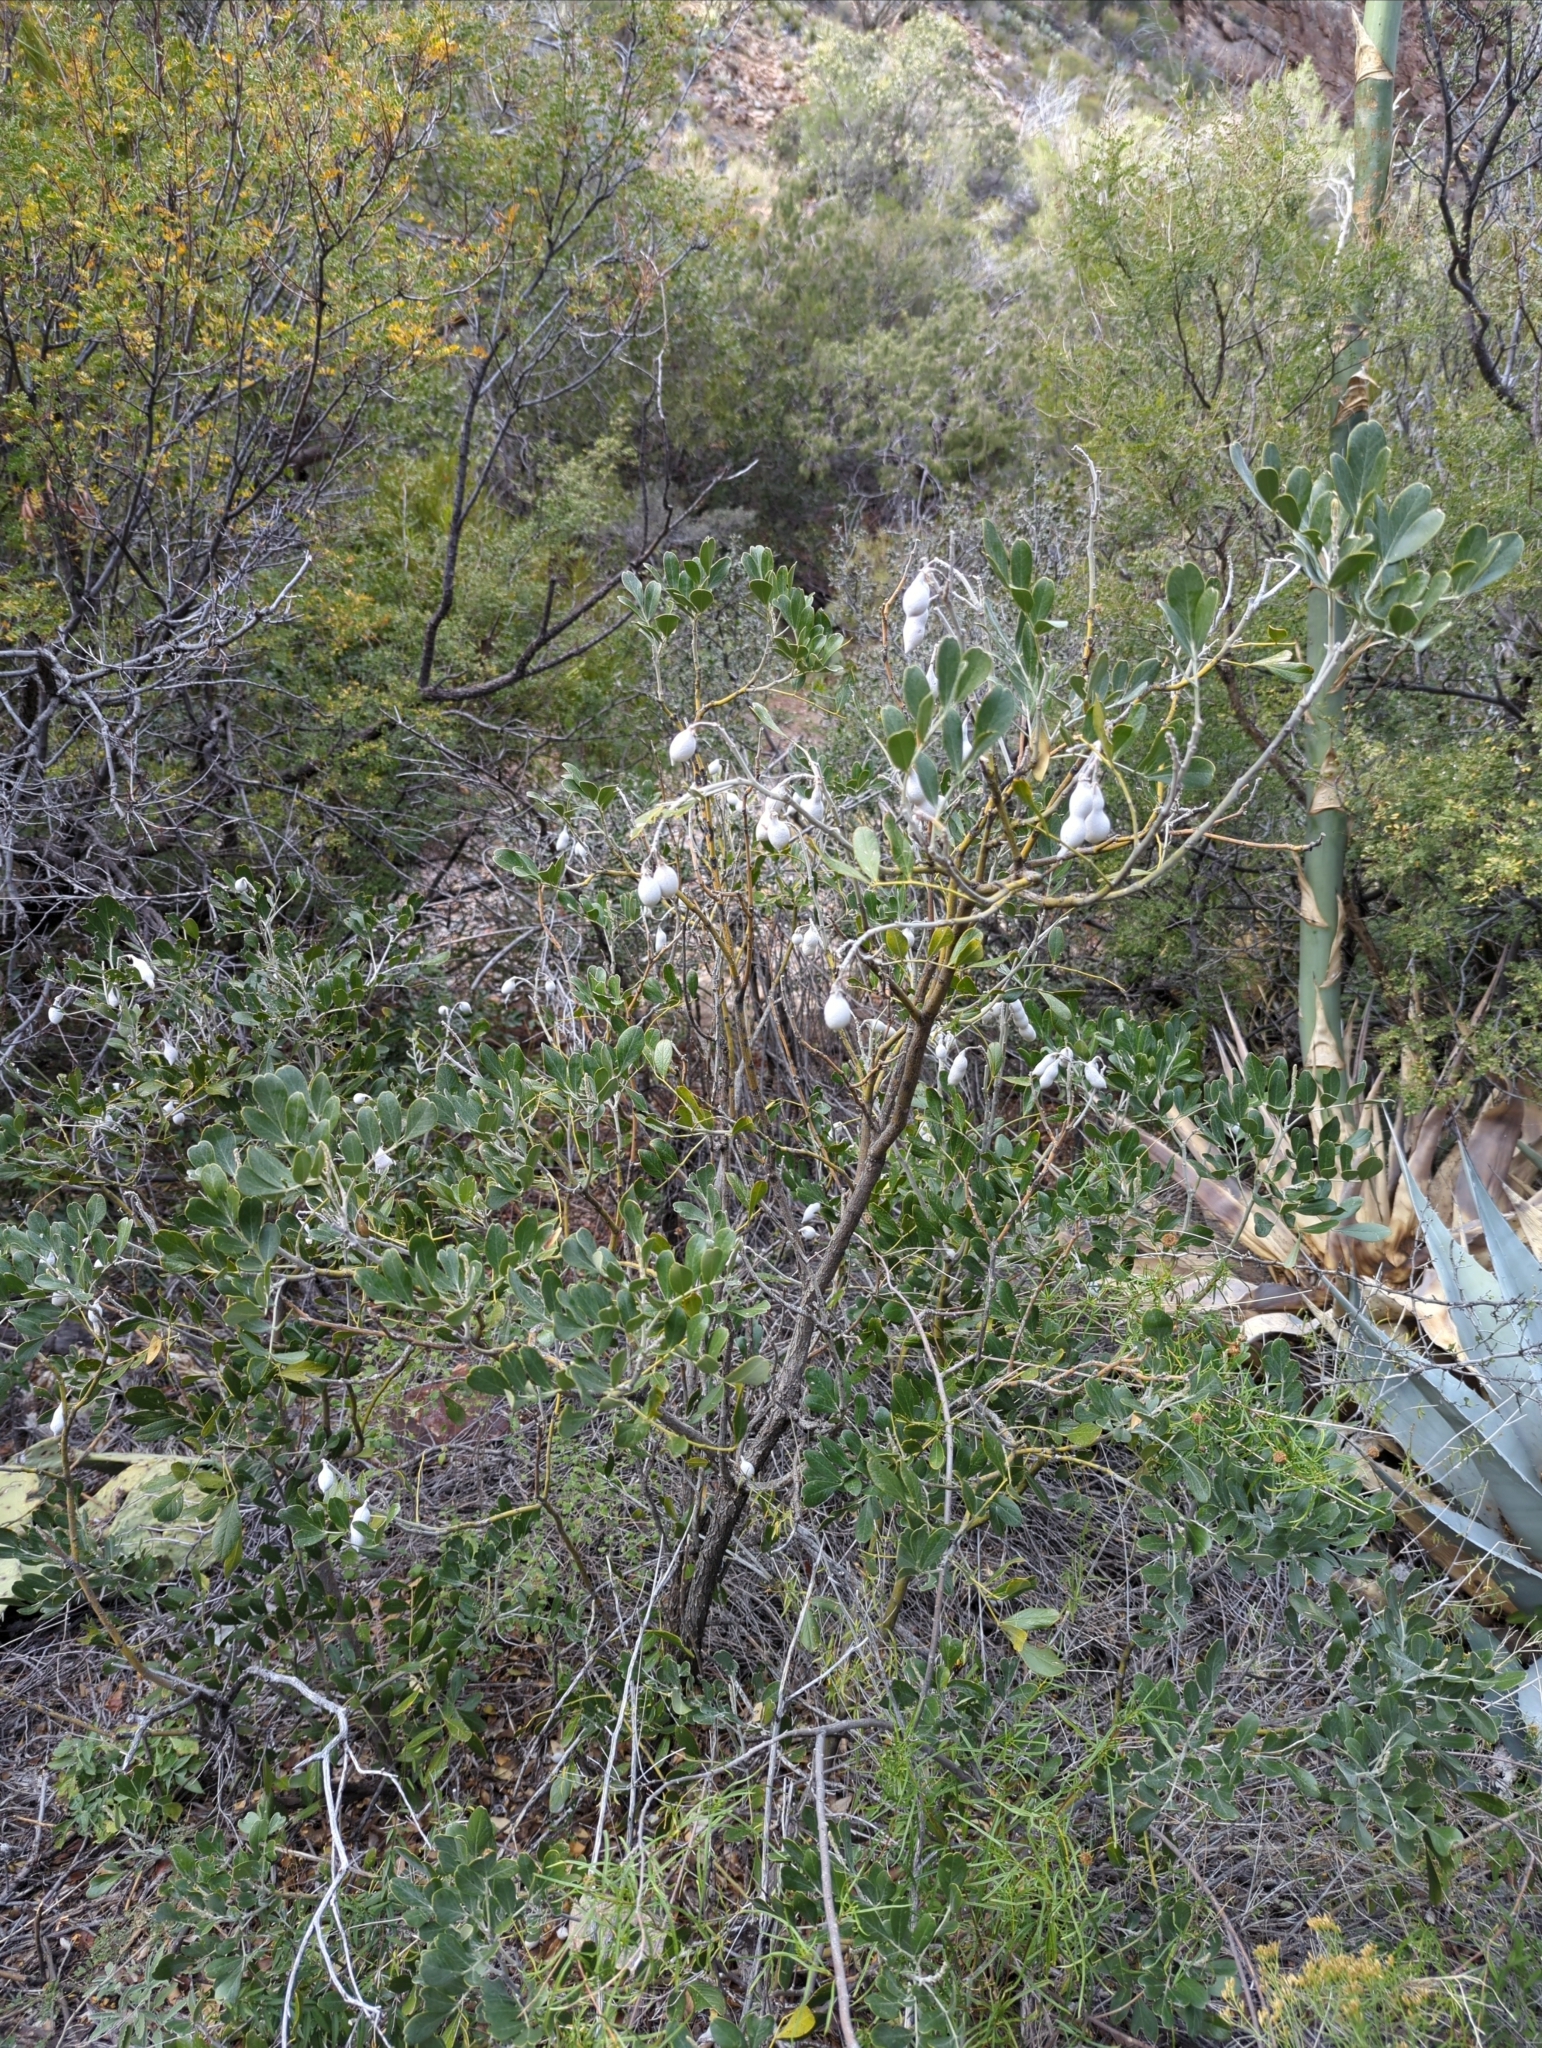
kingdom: Plantae
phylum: Tracheophyta
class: Magnoliopsida
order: Fabales
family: Fabaceae
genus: Dermatophyllum
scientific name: Dermatophyllum secundiflorum
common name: Texas-mountain-laurel
